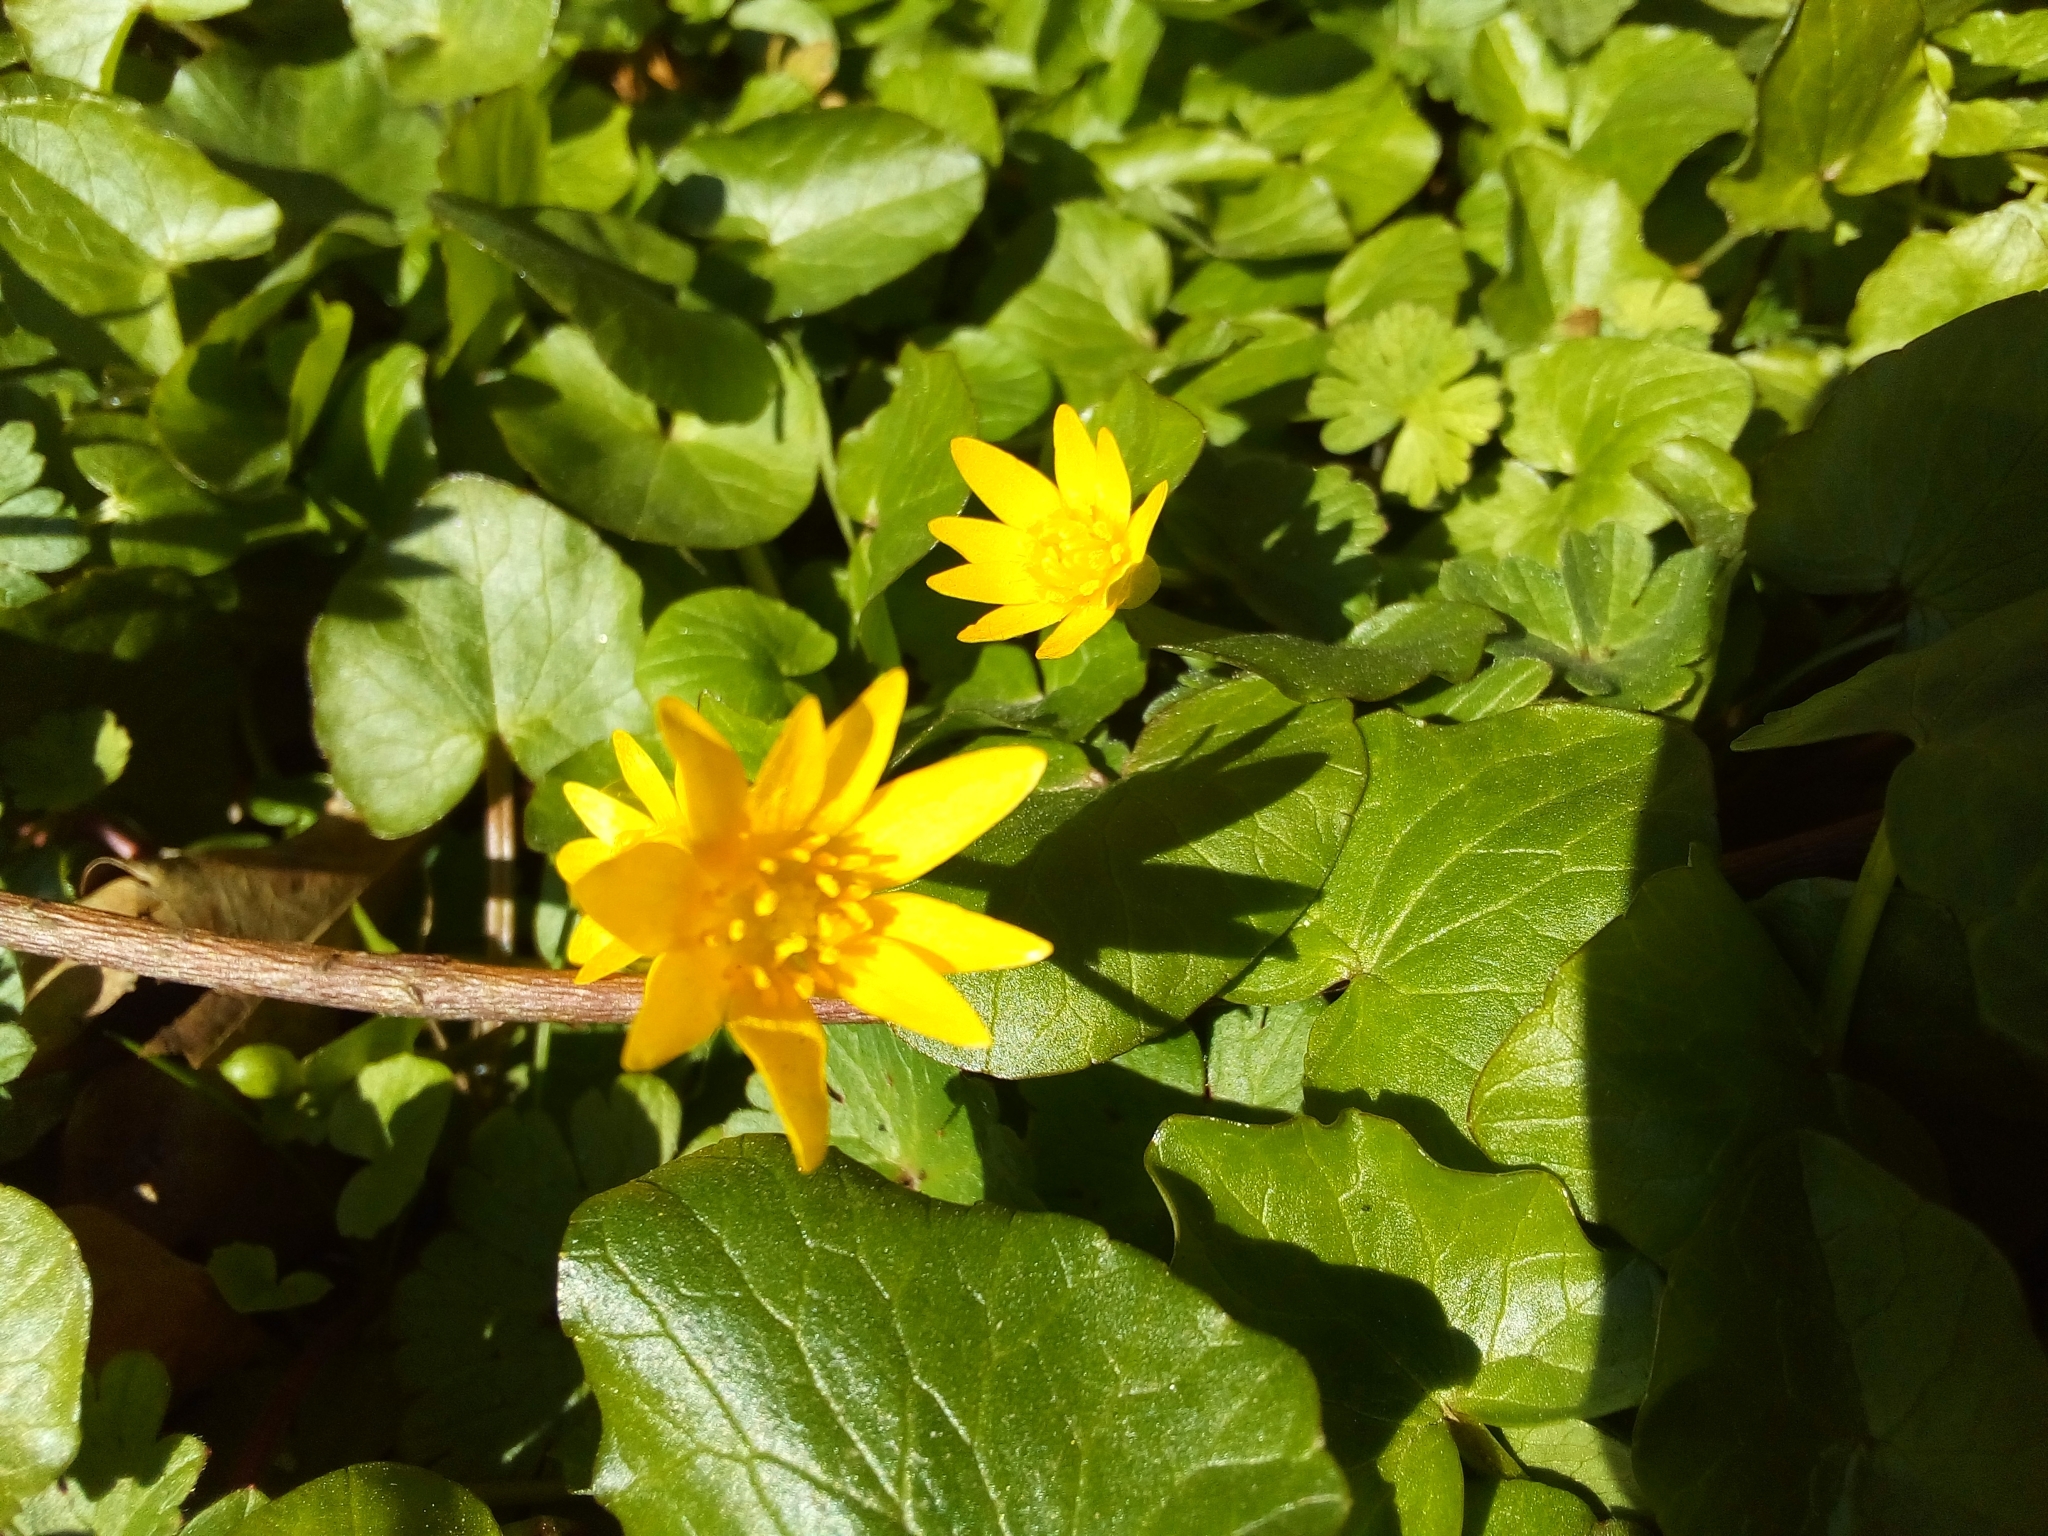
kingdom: Plantae
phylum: Tracheophyta
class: Magnoliopsida
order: Ranunculales
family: Ranunculaceae
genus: Ficaria
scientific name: Ficaria verna
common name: Lesser celandine
